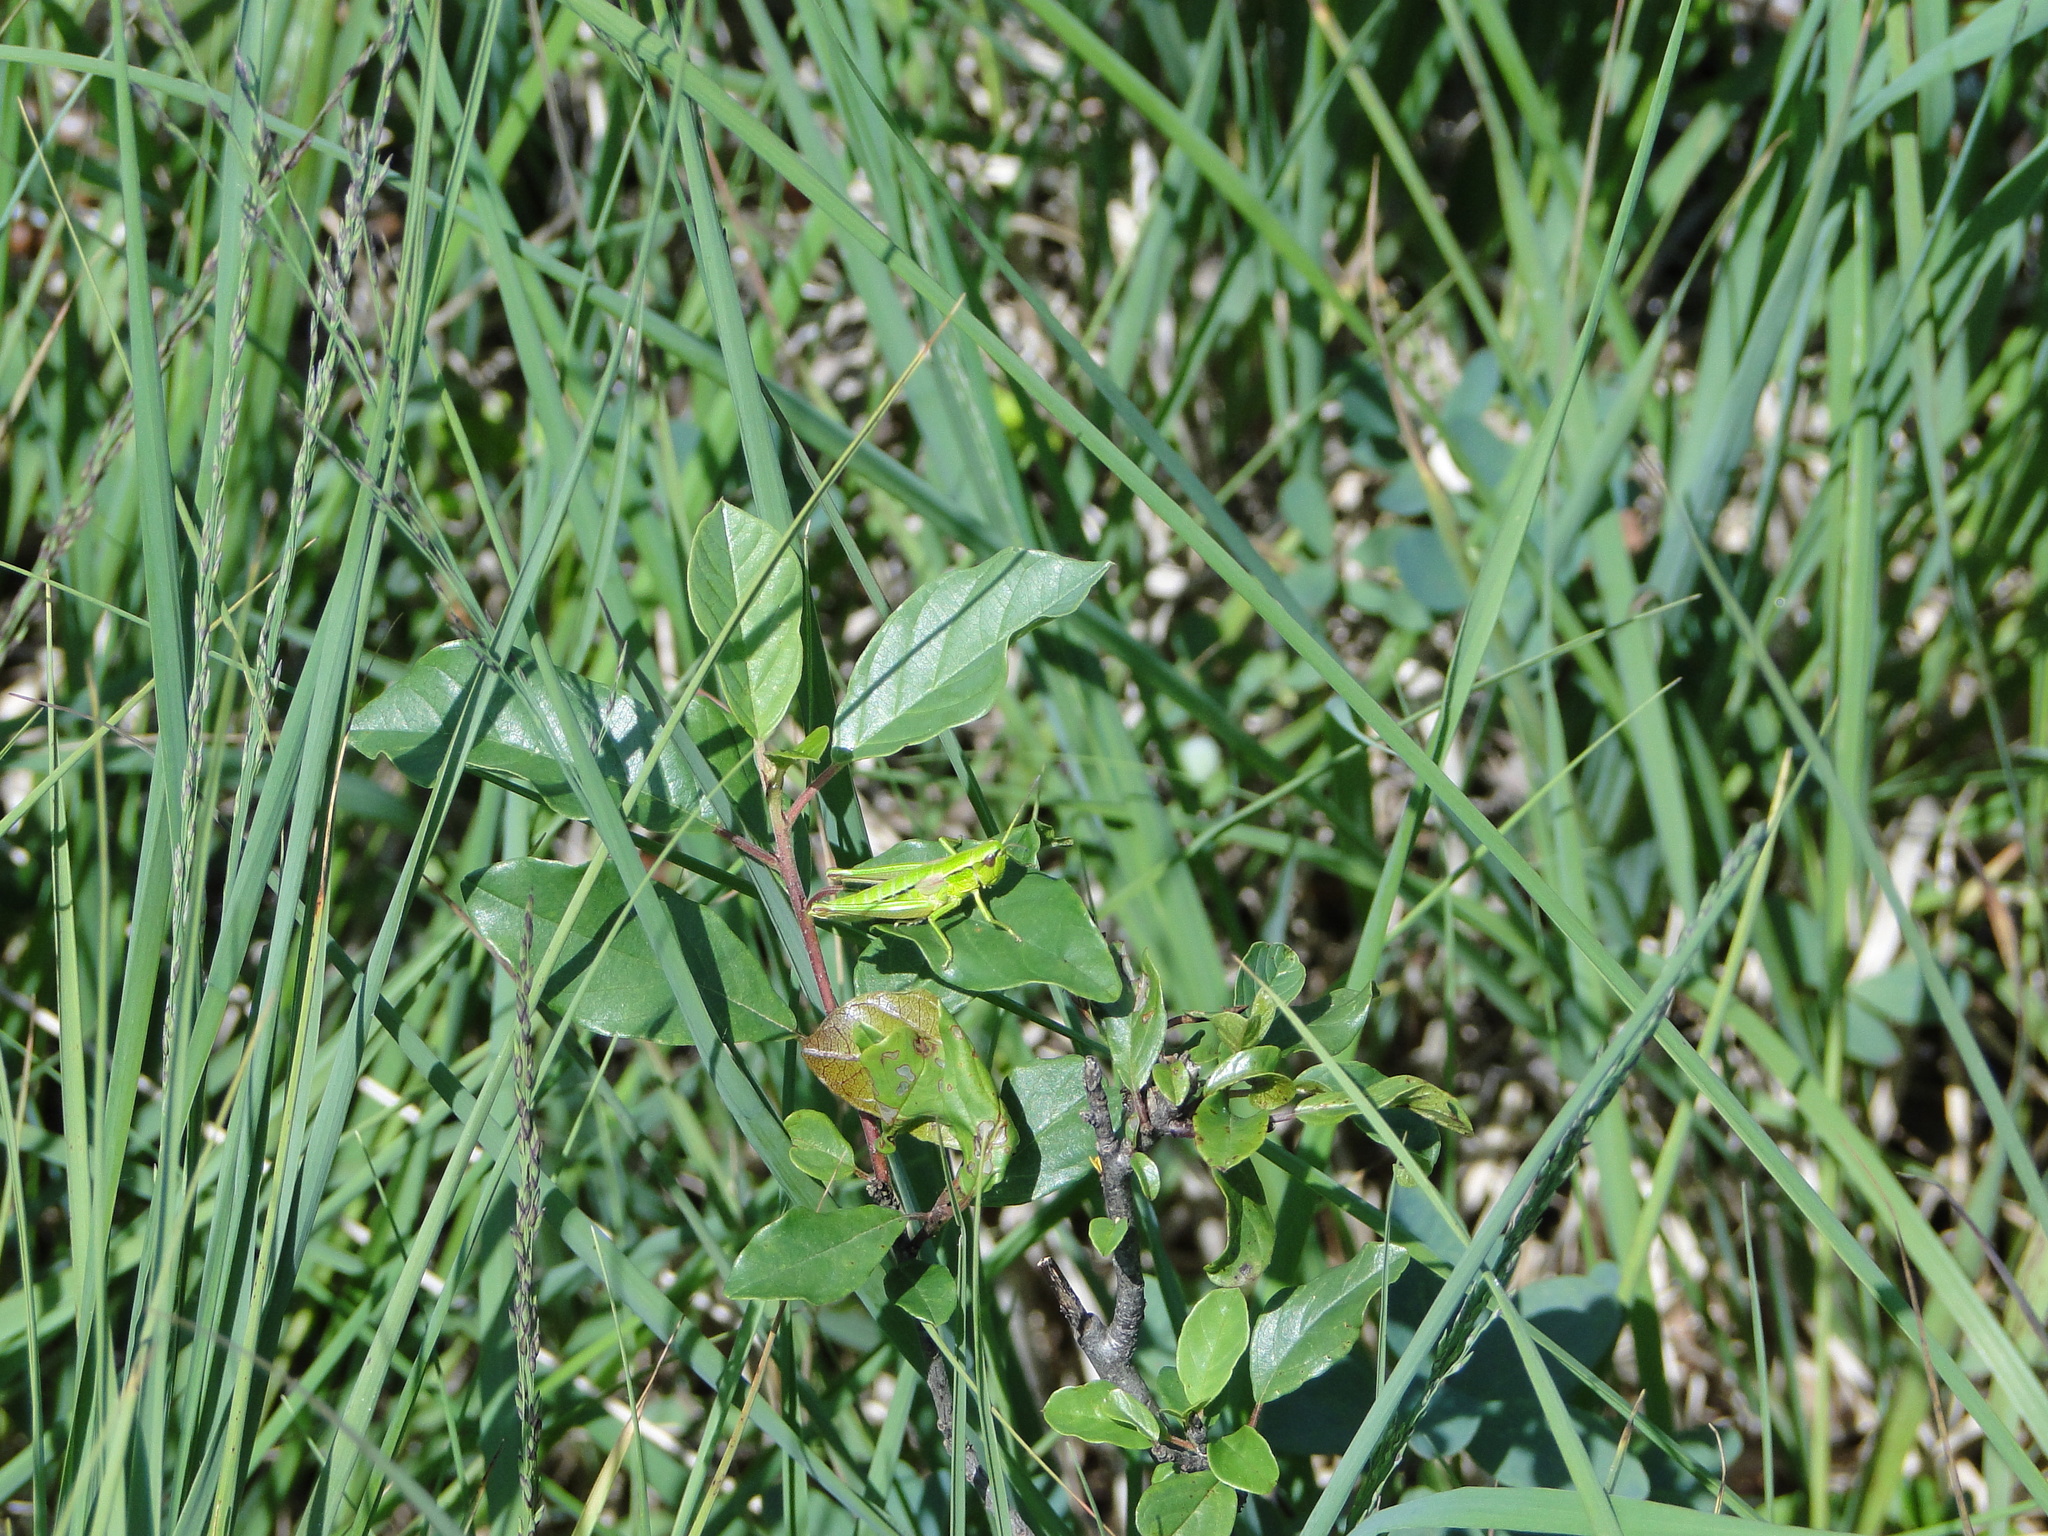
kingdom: Animalia
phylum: Arthropoda
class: Insecta
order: Orthoptera
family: Acrididae
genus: Euthystira
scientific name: Euthystira brachyptera
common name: Small gold grasshopper
